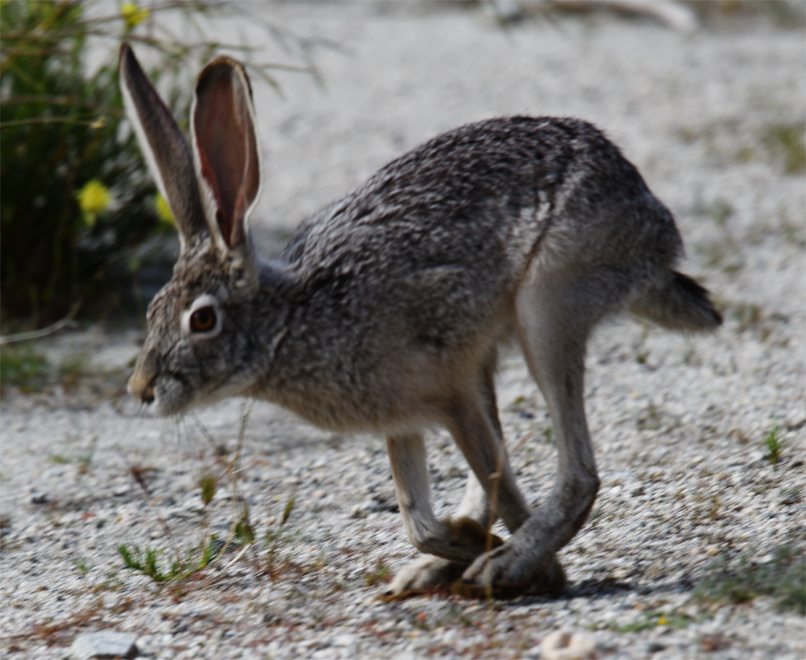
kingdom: Animalia
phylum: Chordata
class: Mammalia
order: Lagomorpha
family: Leporidae
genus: Lepus
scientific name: Lepus californicus
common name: Black-tailed jackrabbit
